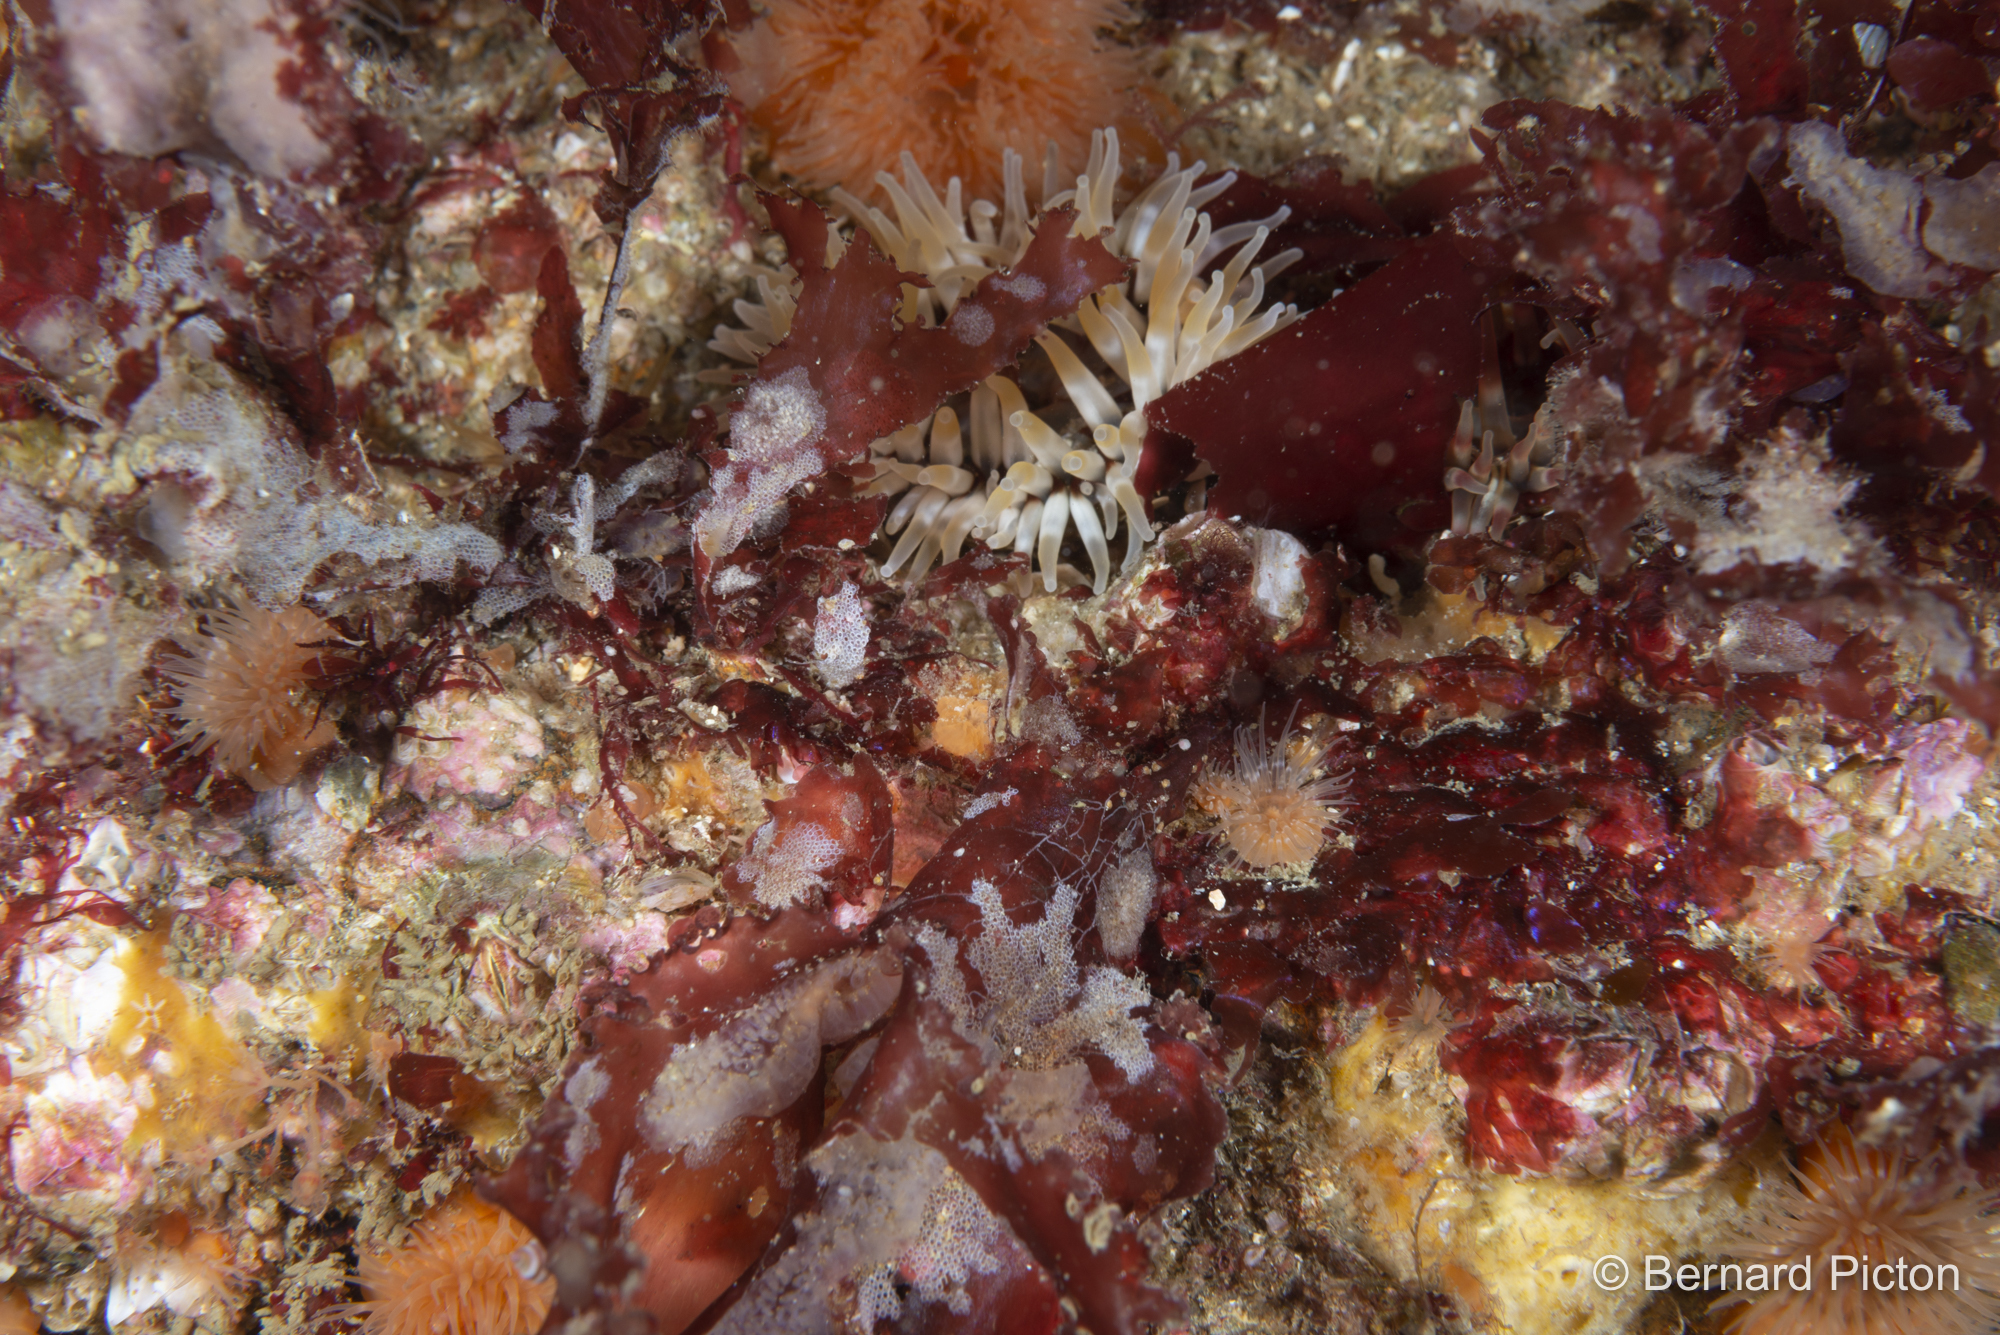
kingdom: Animalia
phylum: Cnidaria
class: Anthozoa
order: Actiniaria
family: Actiniidae
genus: Urticina
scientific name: Urticina felina
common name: Dahlia anemone
